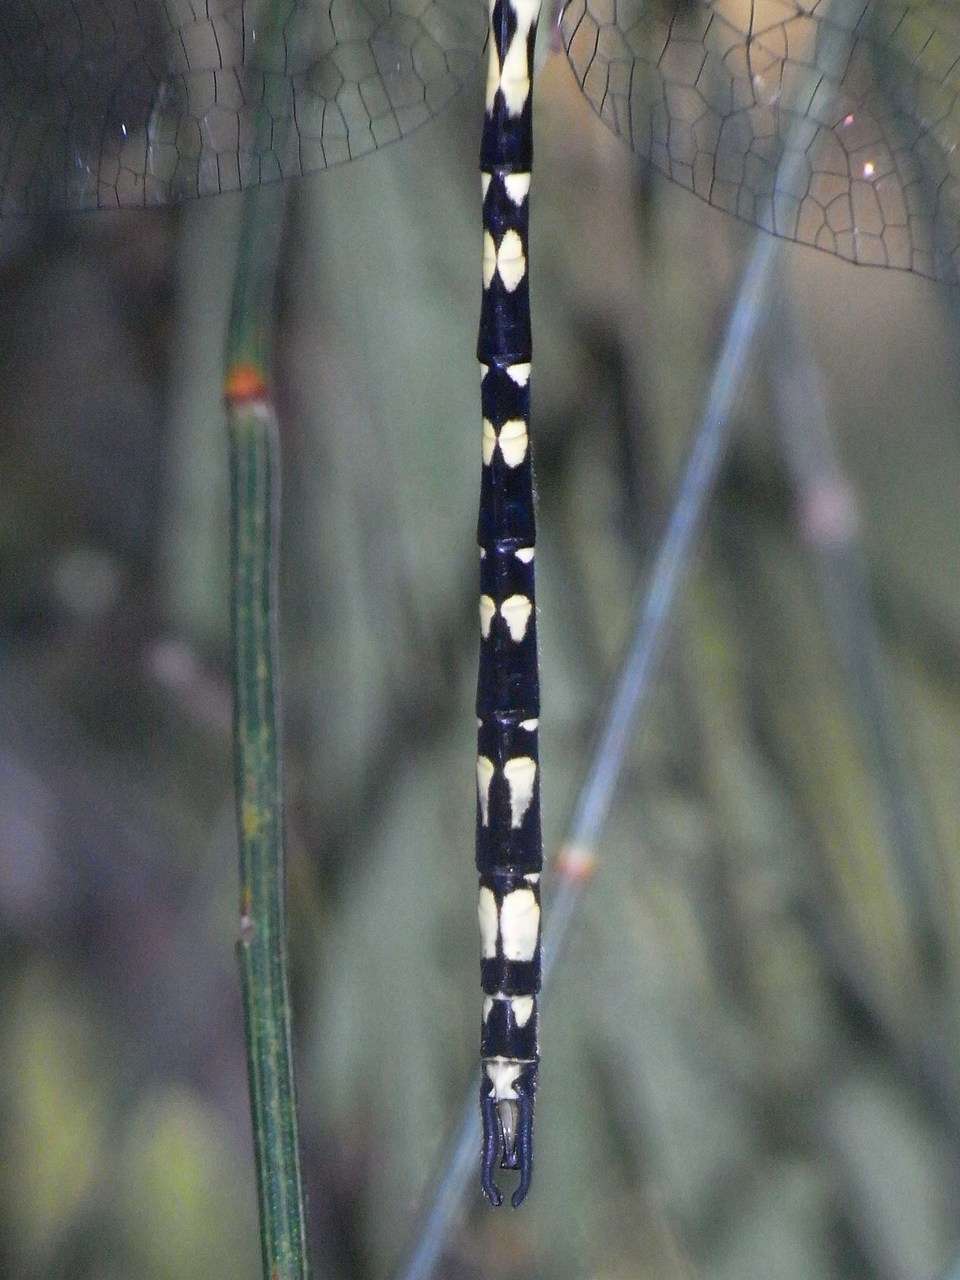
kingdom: Animalia
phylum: Arthropoda
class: Insecta
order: Odonata
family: Synthemistidae
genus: Synthemis
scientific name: Synthemis eustalacta
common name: Swamp tigertail
